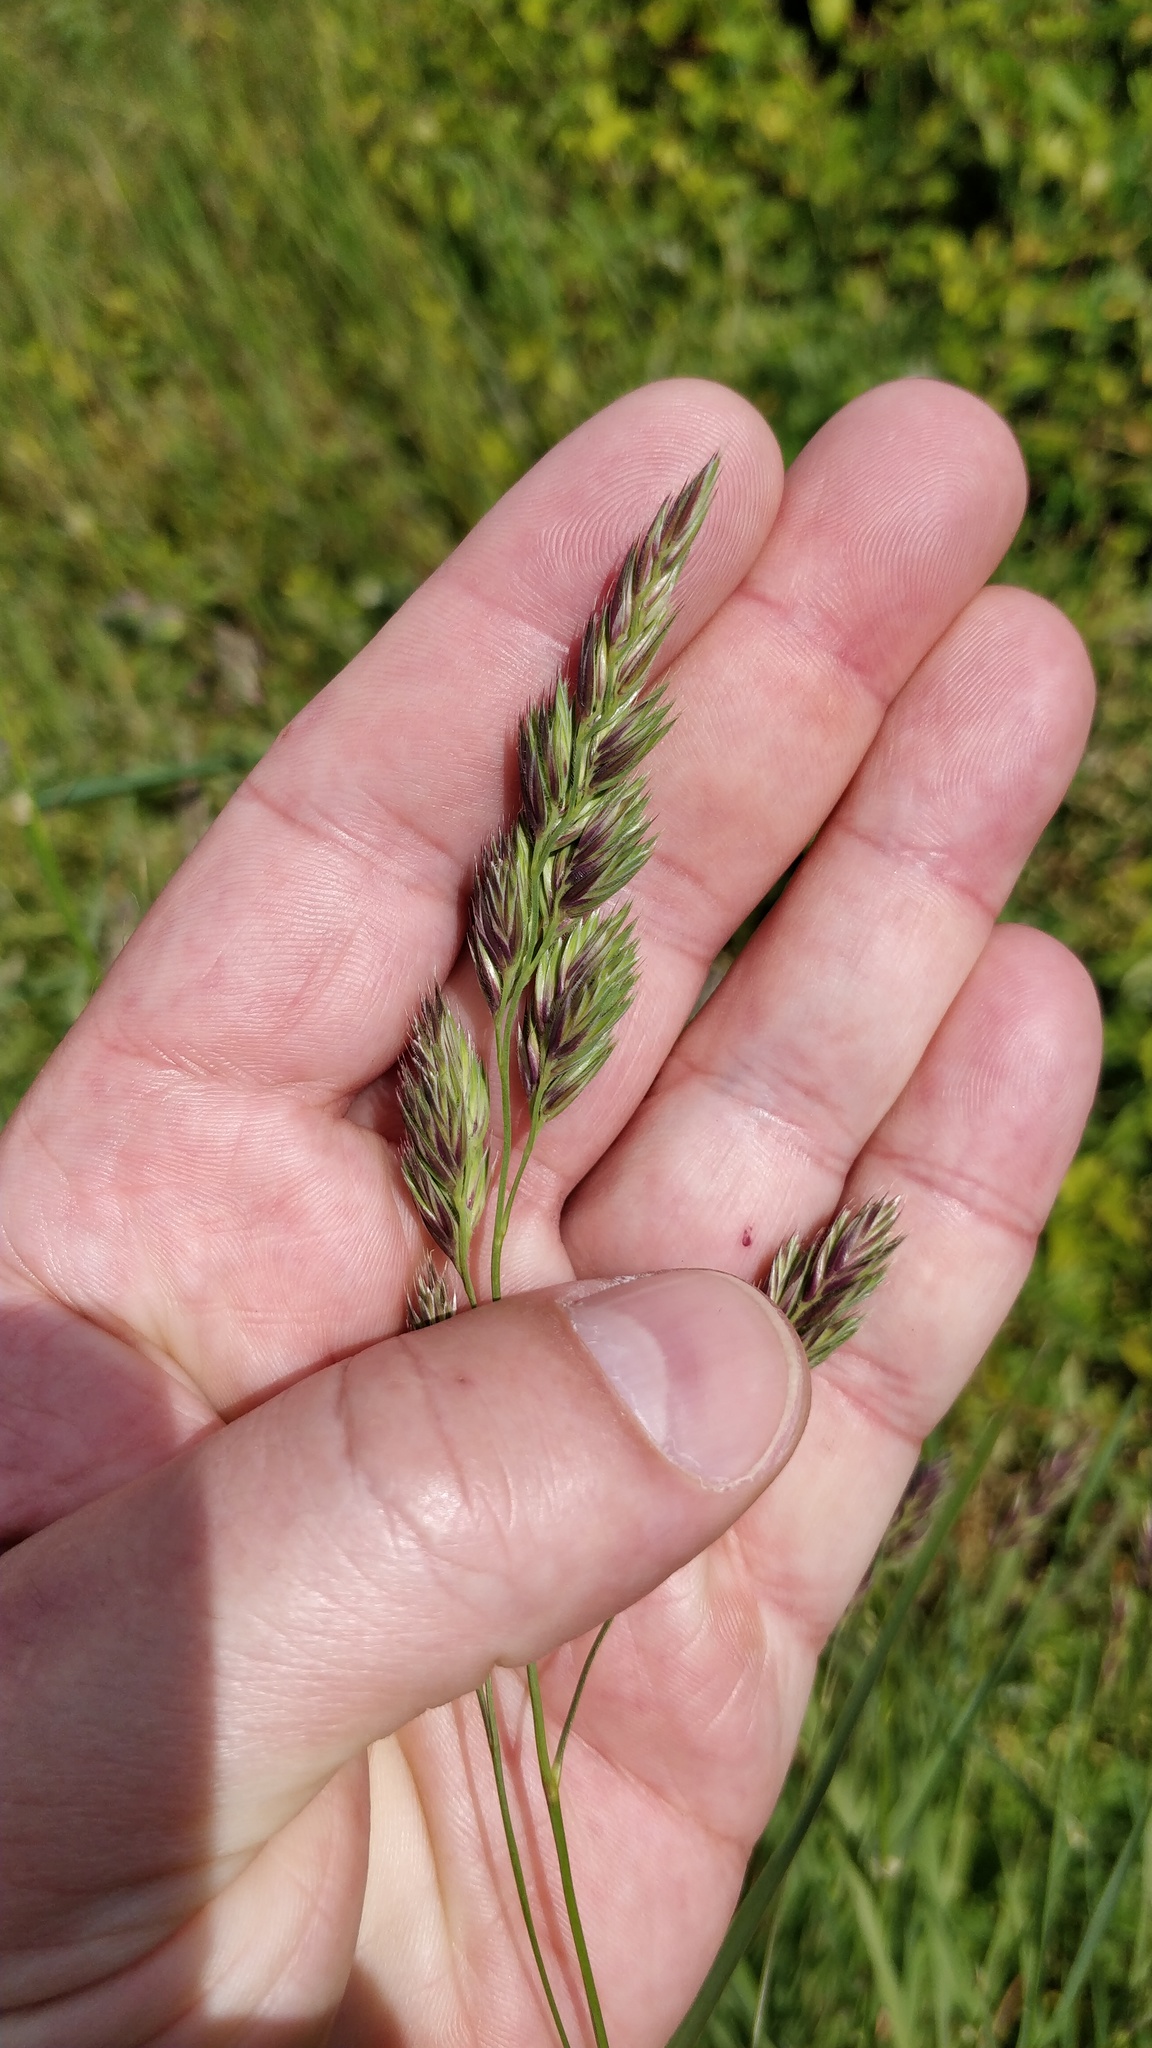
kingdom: Plantae
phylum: Tracheophyta
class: Liliopsida
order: Poales
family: Poaceae
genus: Dactylis
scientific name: Dactylis glomerata
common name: Orchardgrass
